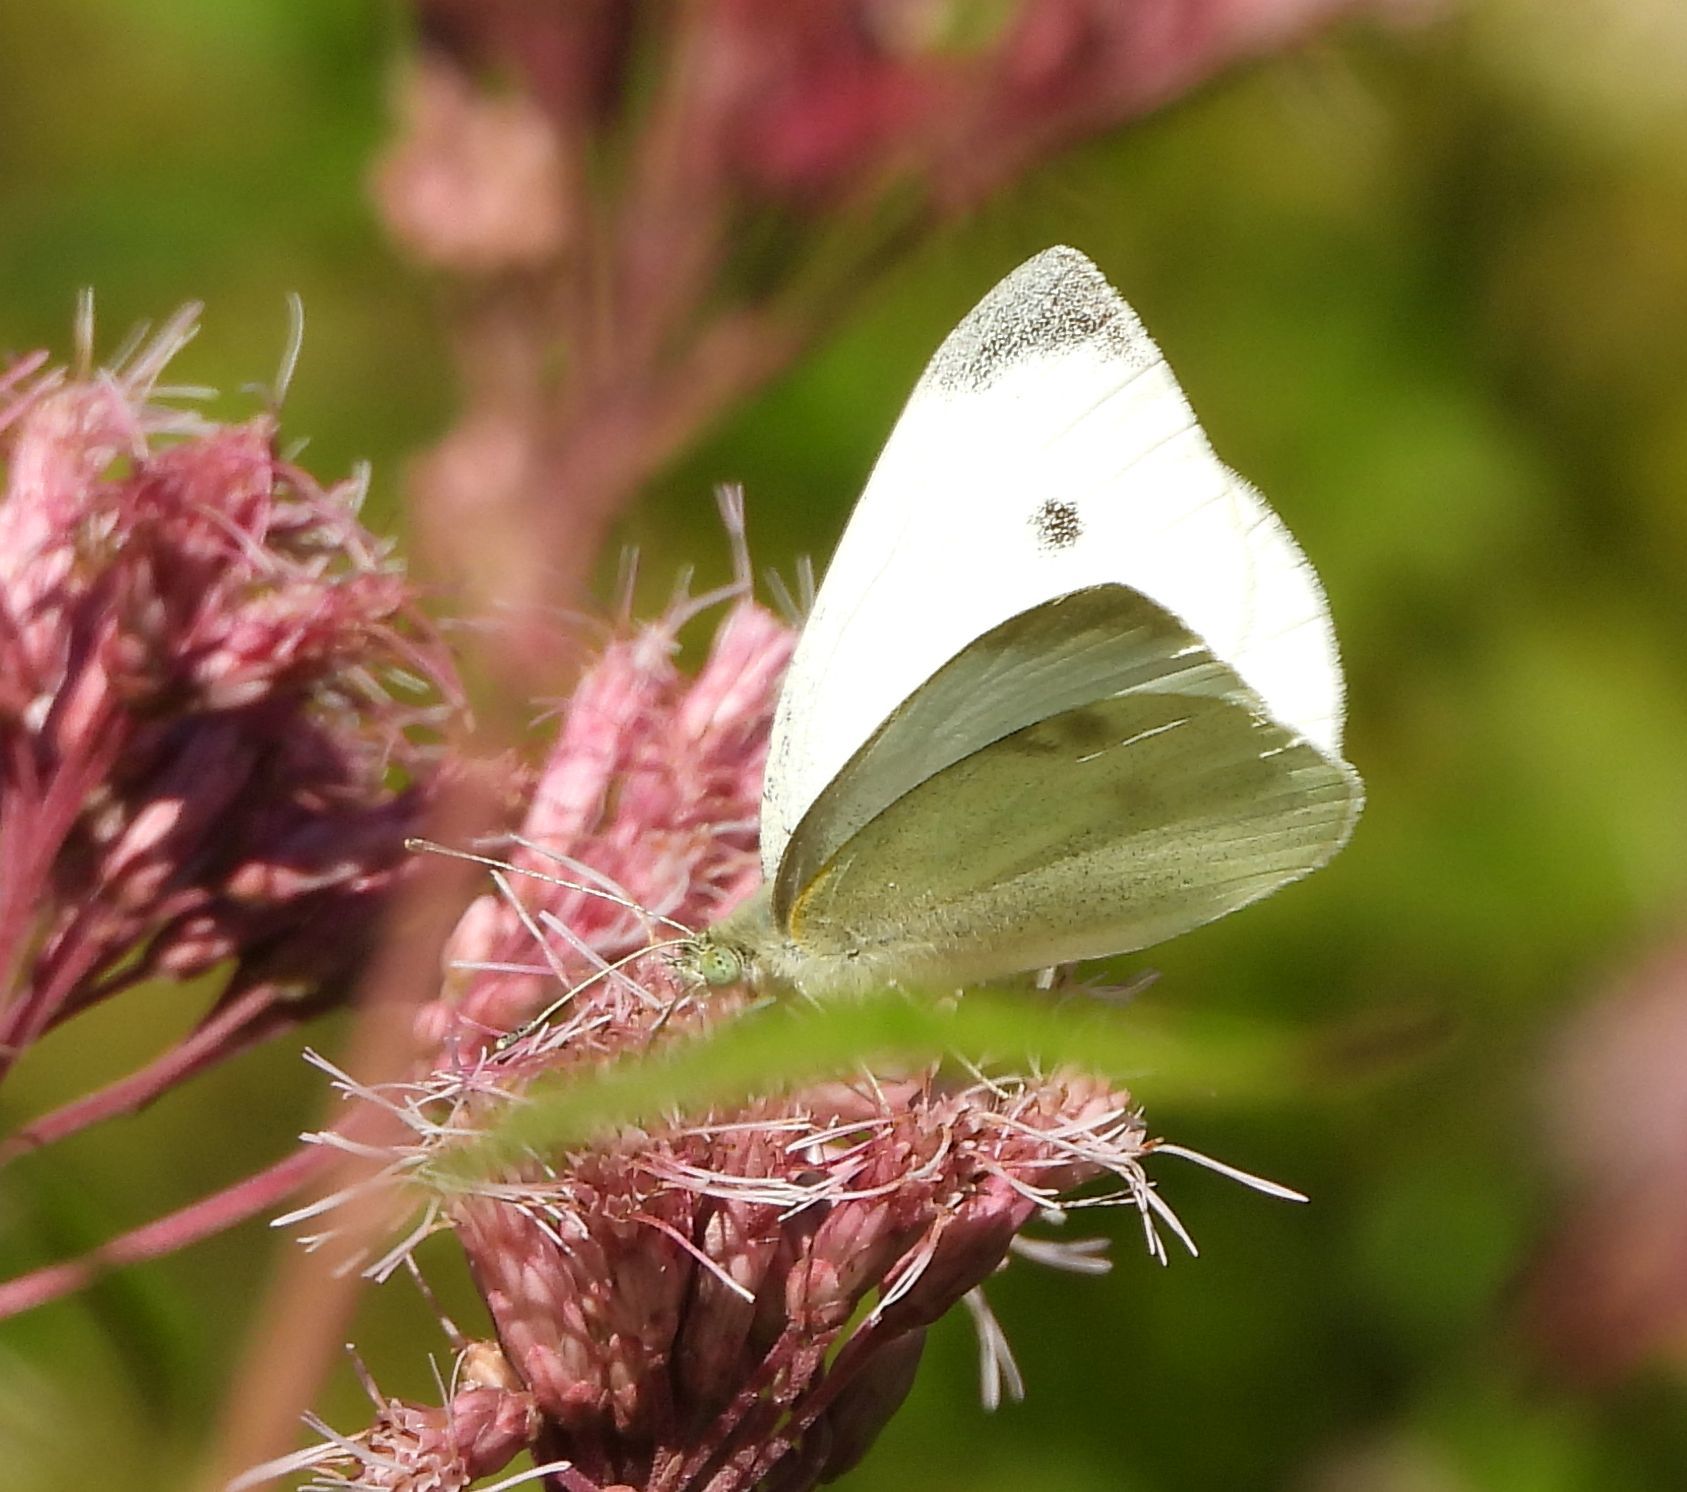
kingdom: Animalia
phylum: Arthropoda
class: Insecta
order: Lepidoptera
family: Pieridae
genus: Pieris
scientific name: Pieris rapae
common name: Small white
